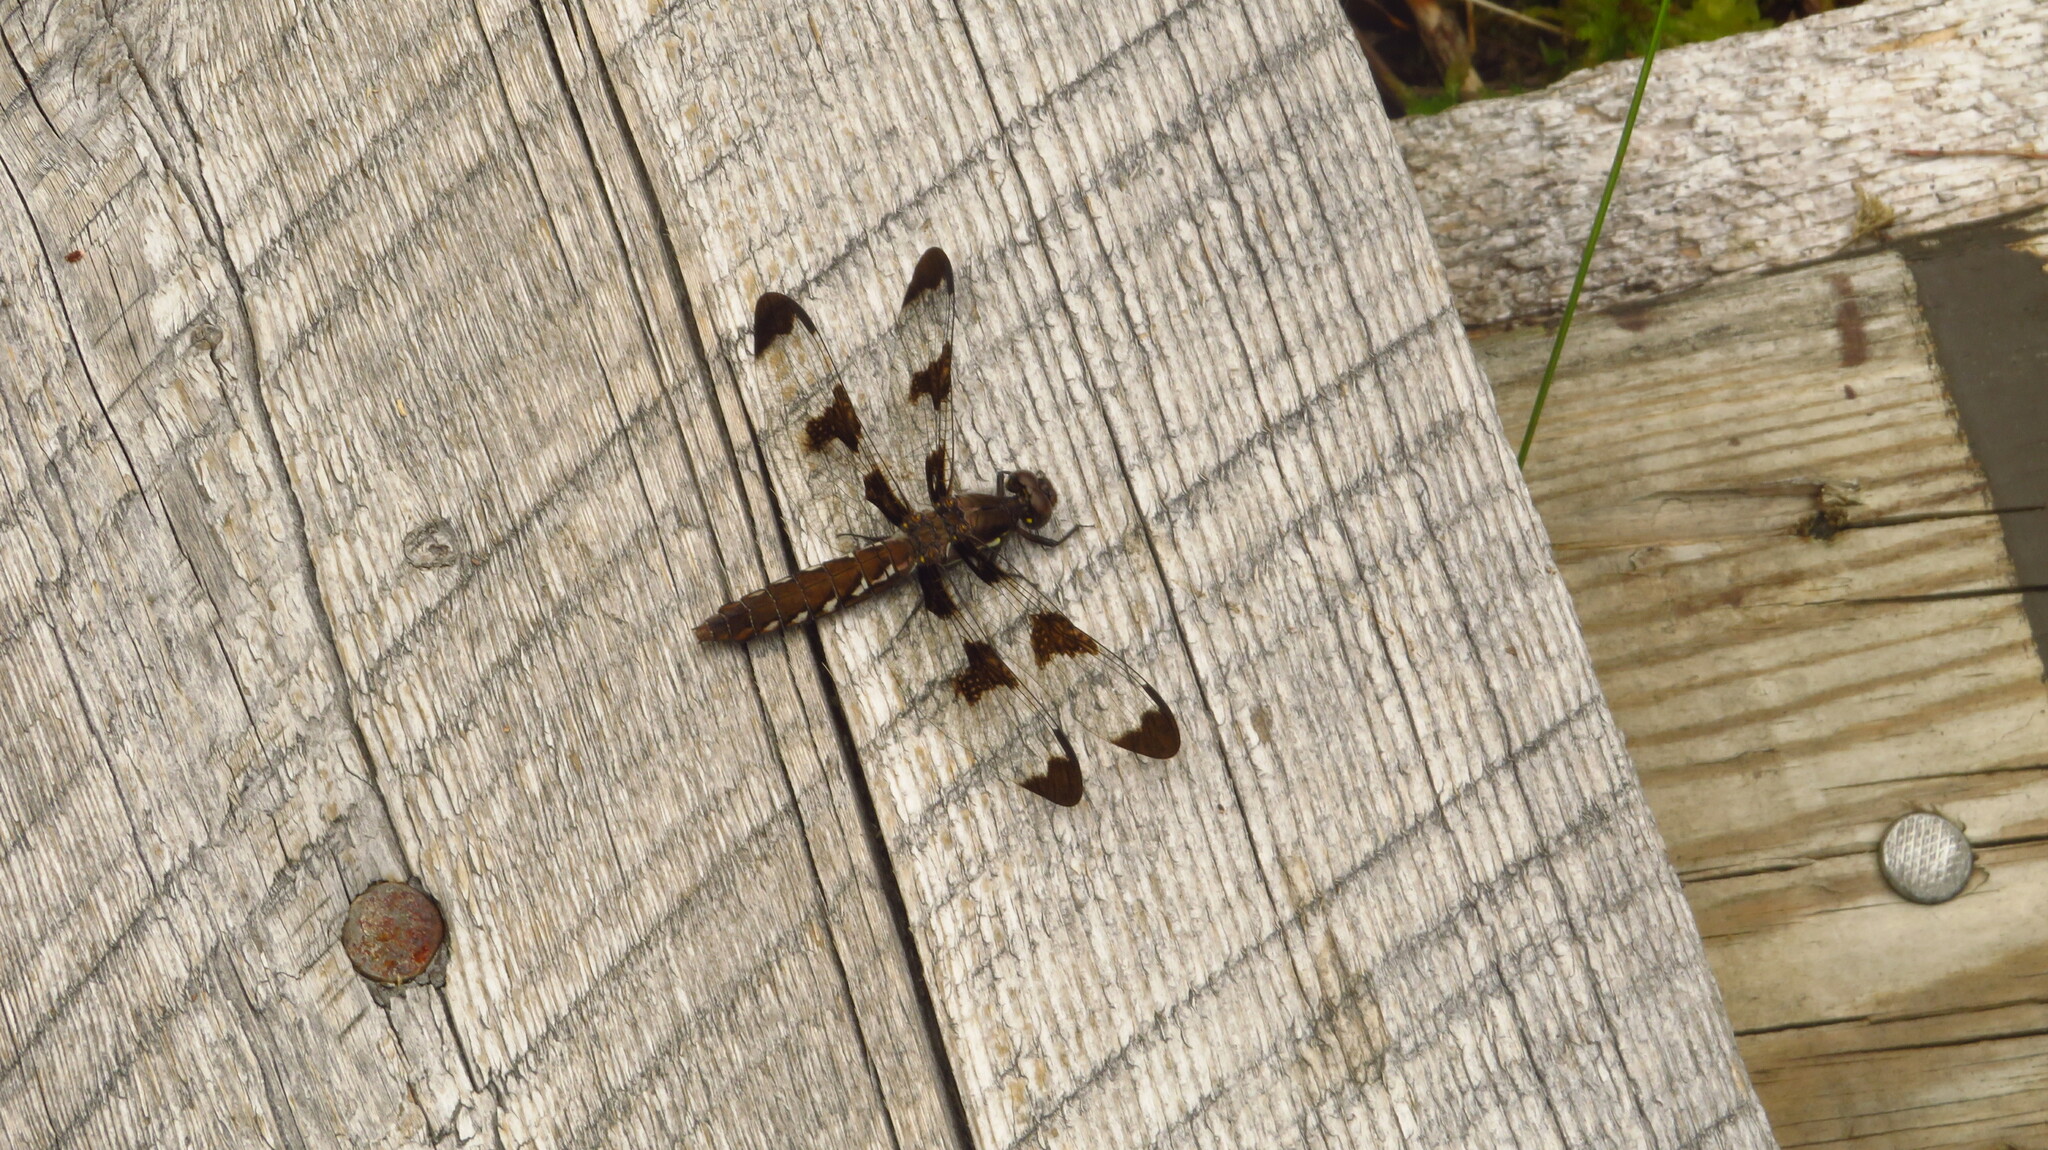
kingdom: Animalia
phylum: Arthropoda
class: Insecta
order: Odonata
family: Libellulidae
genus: Plathemis
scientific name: Plathemis lydia
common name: Common whitetail
